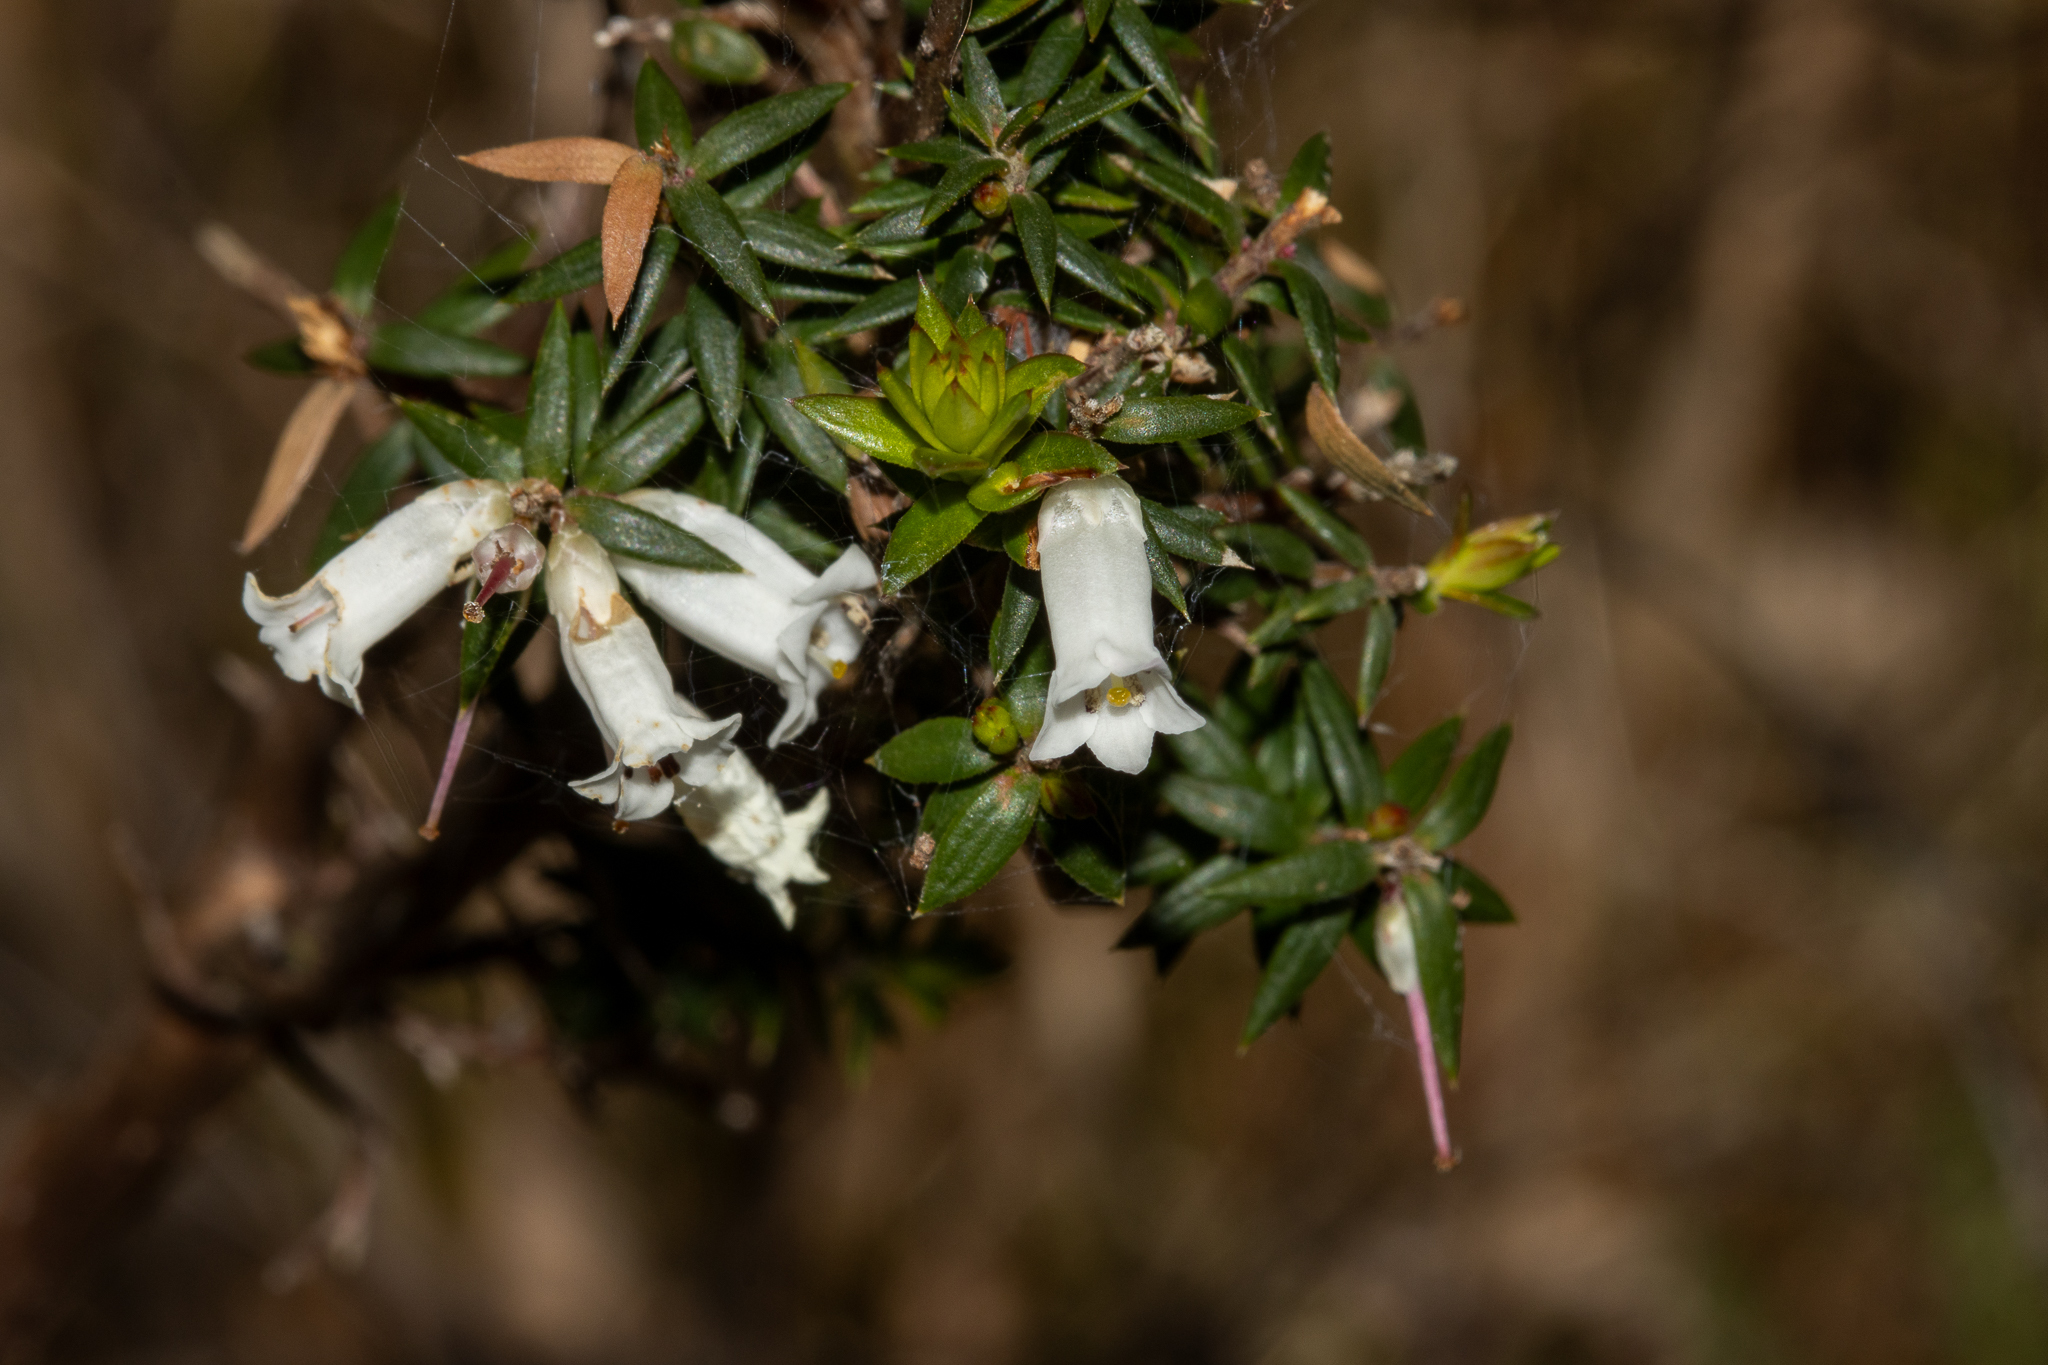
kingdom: Plantae
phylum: Tracheophyta
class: Magnoliopsida
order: Ericales
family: Ericaceae
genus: Epacris
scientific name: Epacris impressa
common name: Common-heath
